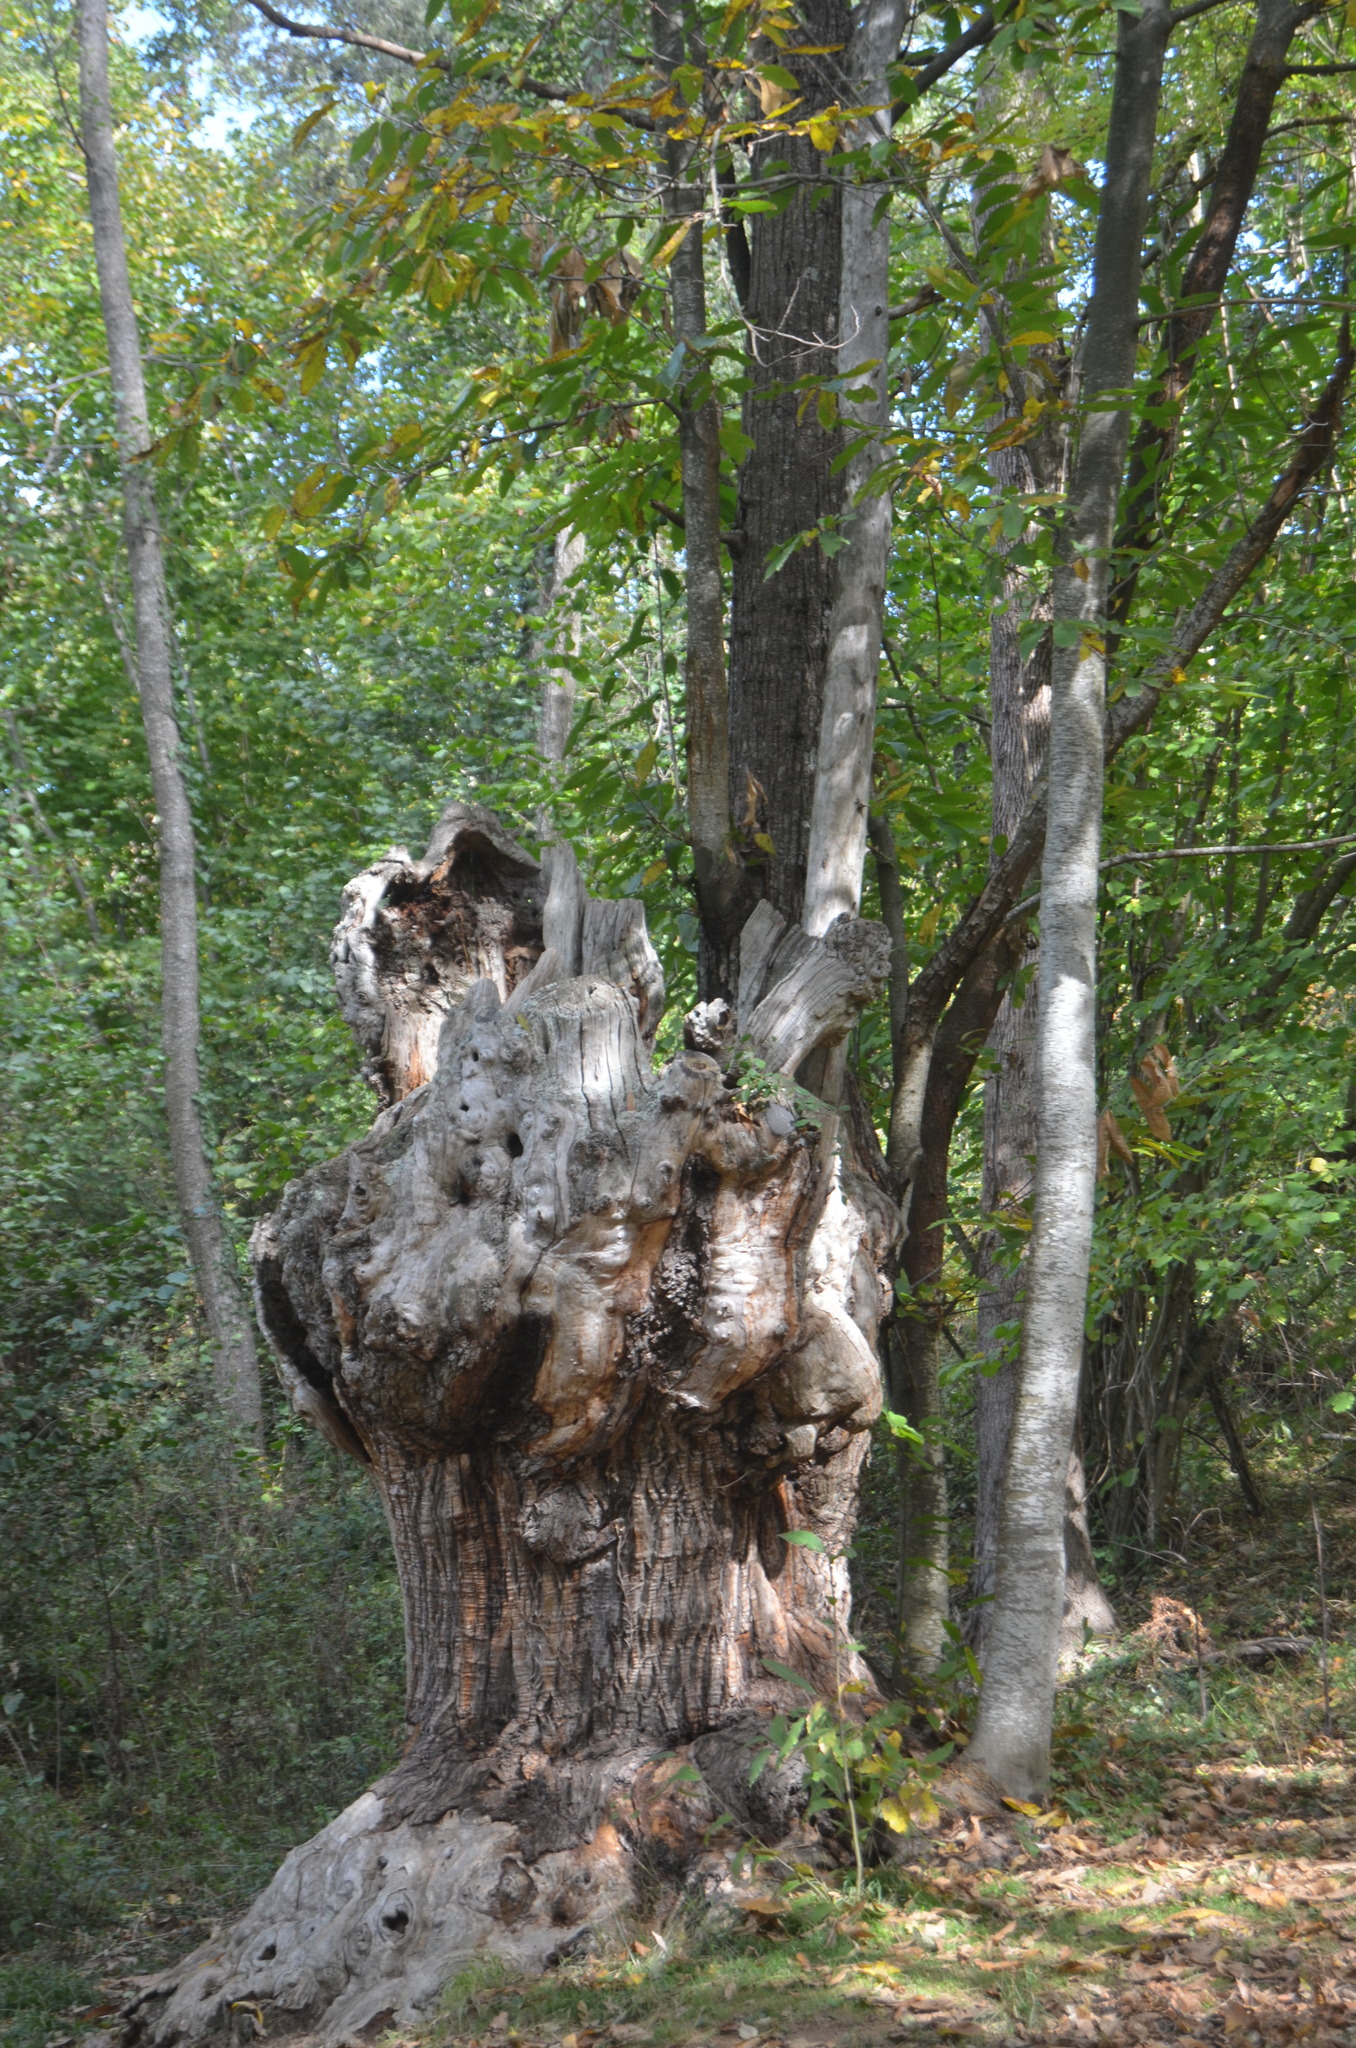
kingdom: Plantae
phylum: Tracheophyta
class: Magnoliopsida
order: Fagales
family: Fagaceae
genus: Castanea
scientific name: Castanea sativa
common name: Sweet chestnut
